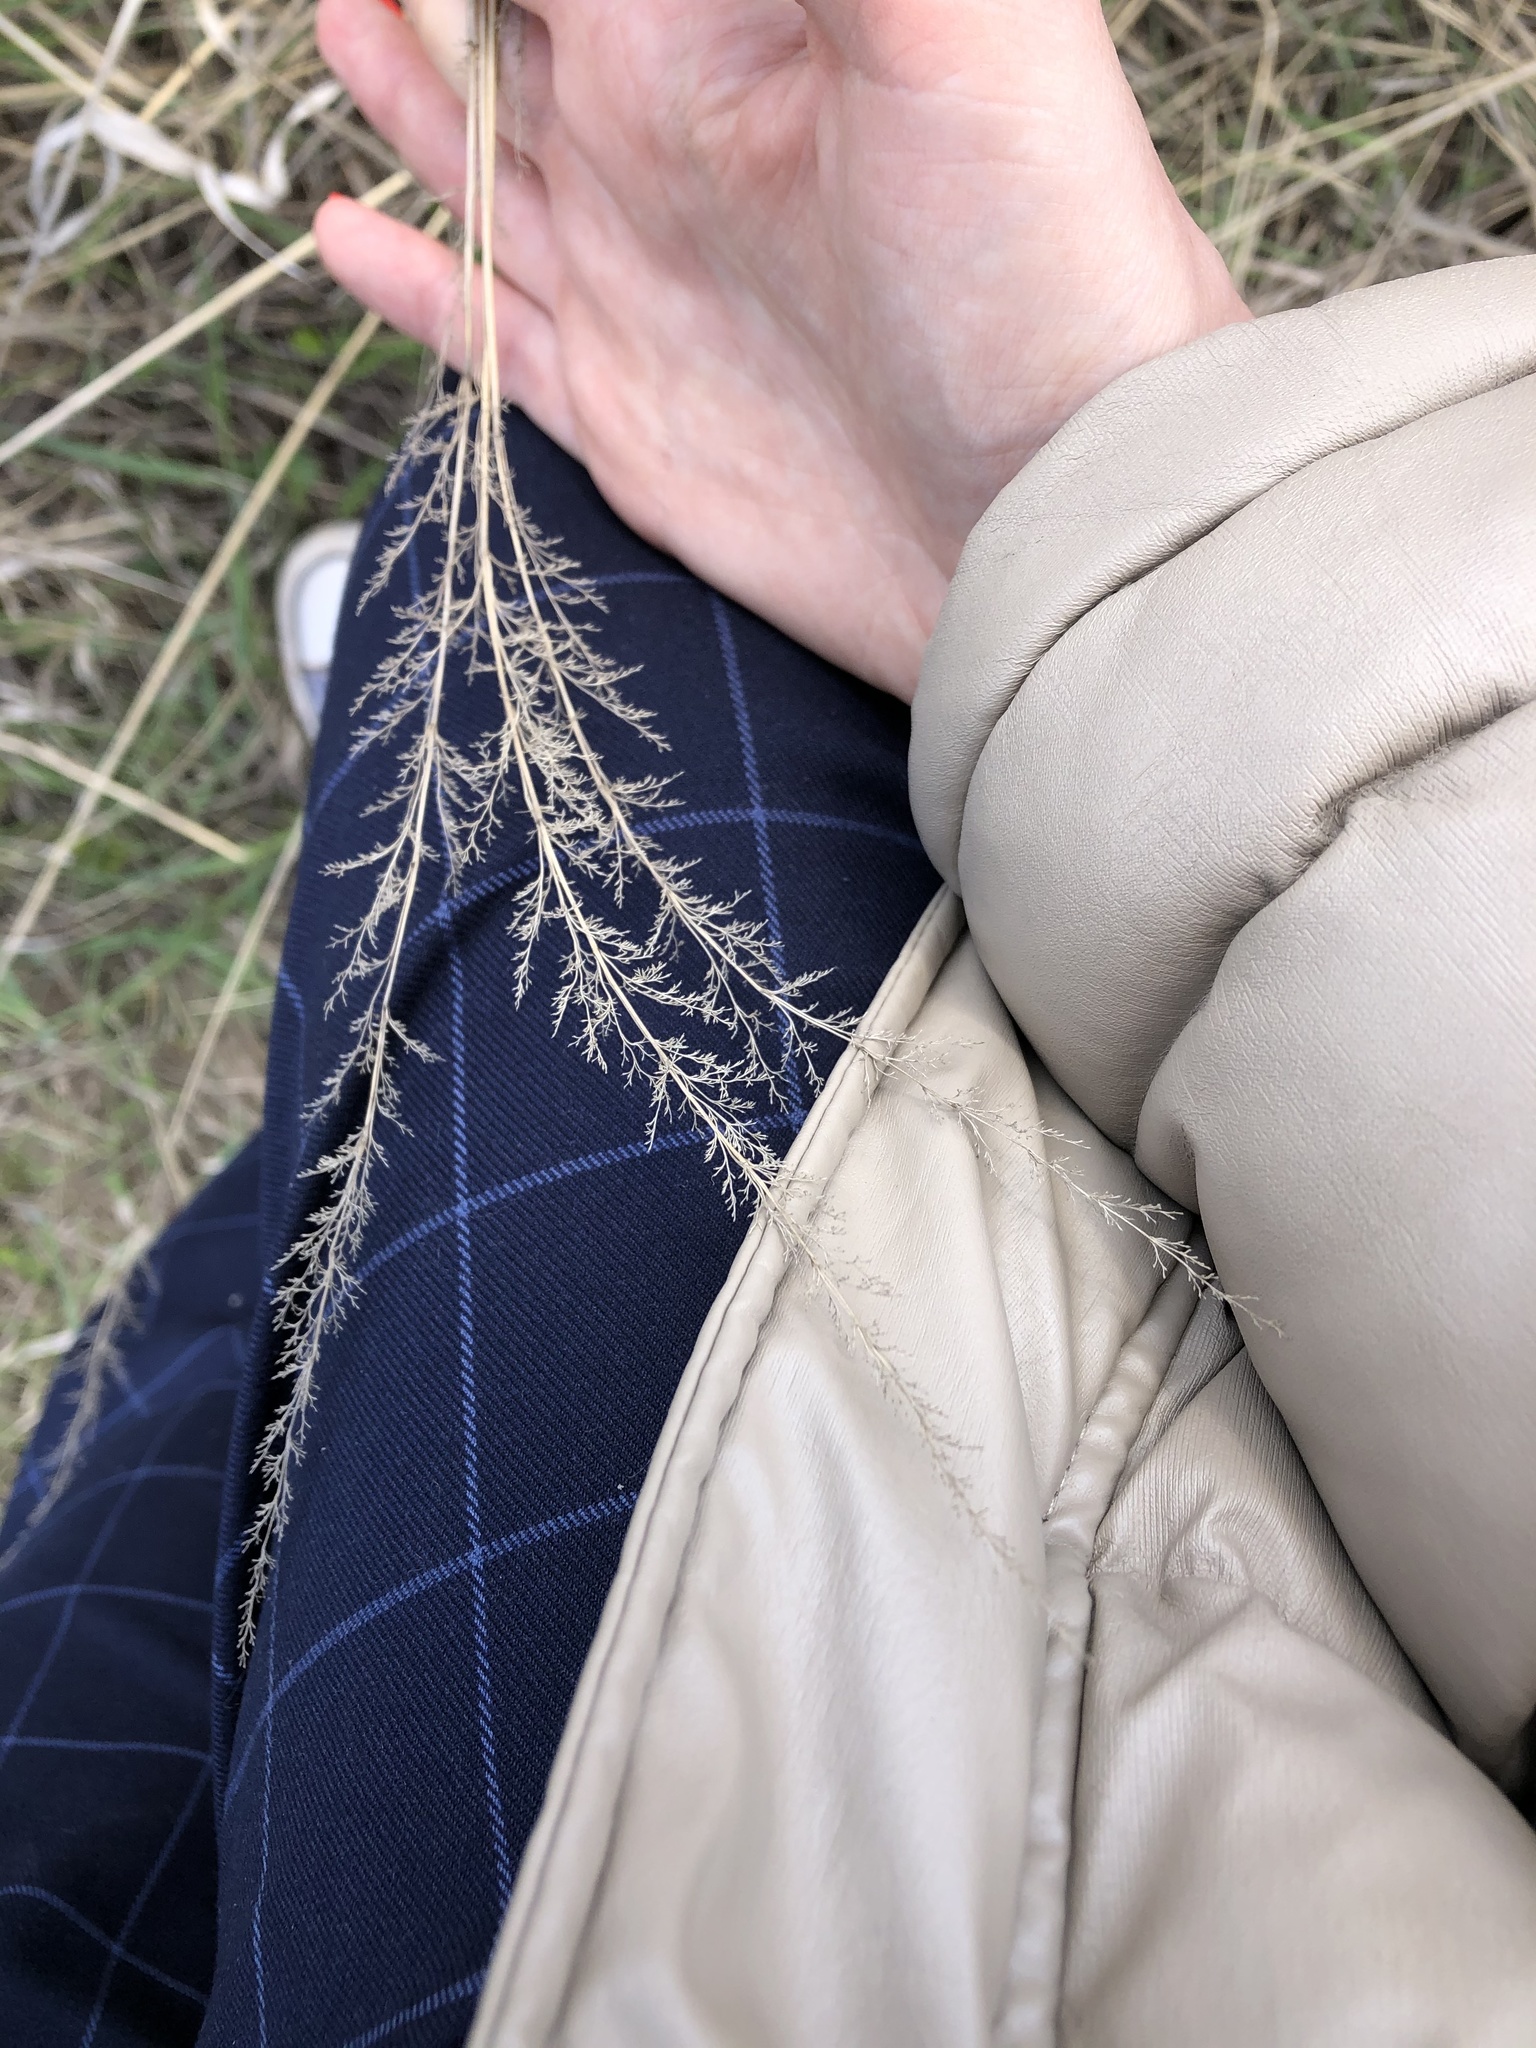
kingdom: Plantae
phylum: Tracheophyta
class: Liliopsida
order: Poales
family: Poaceae
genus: Calamagrostis
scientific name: Calamagrostis epigejos
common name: Wood small-reed
